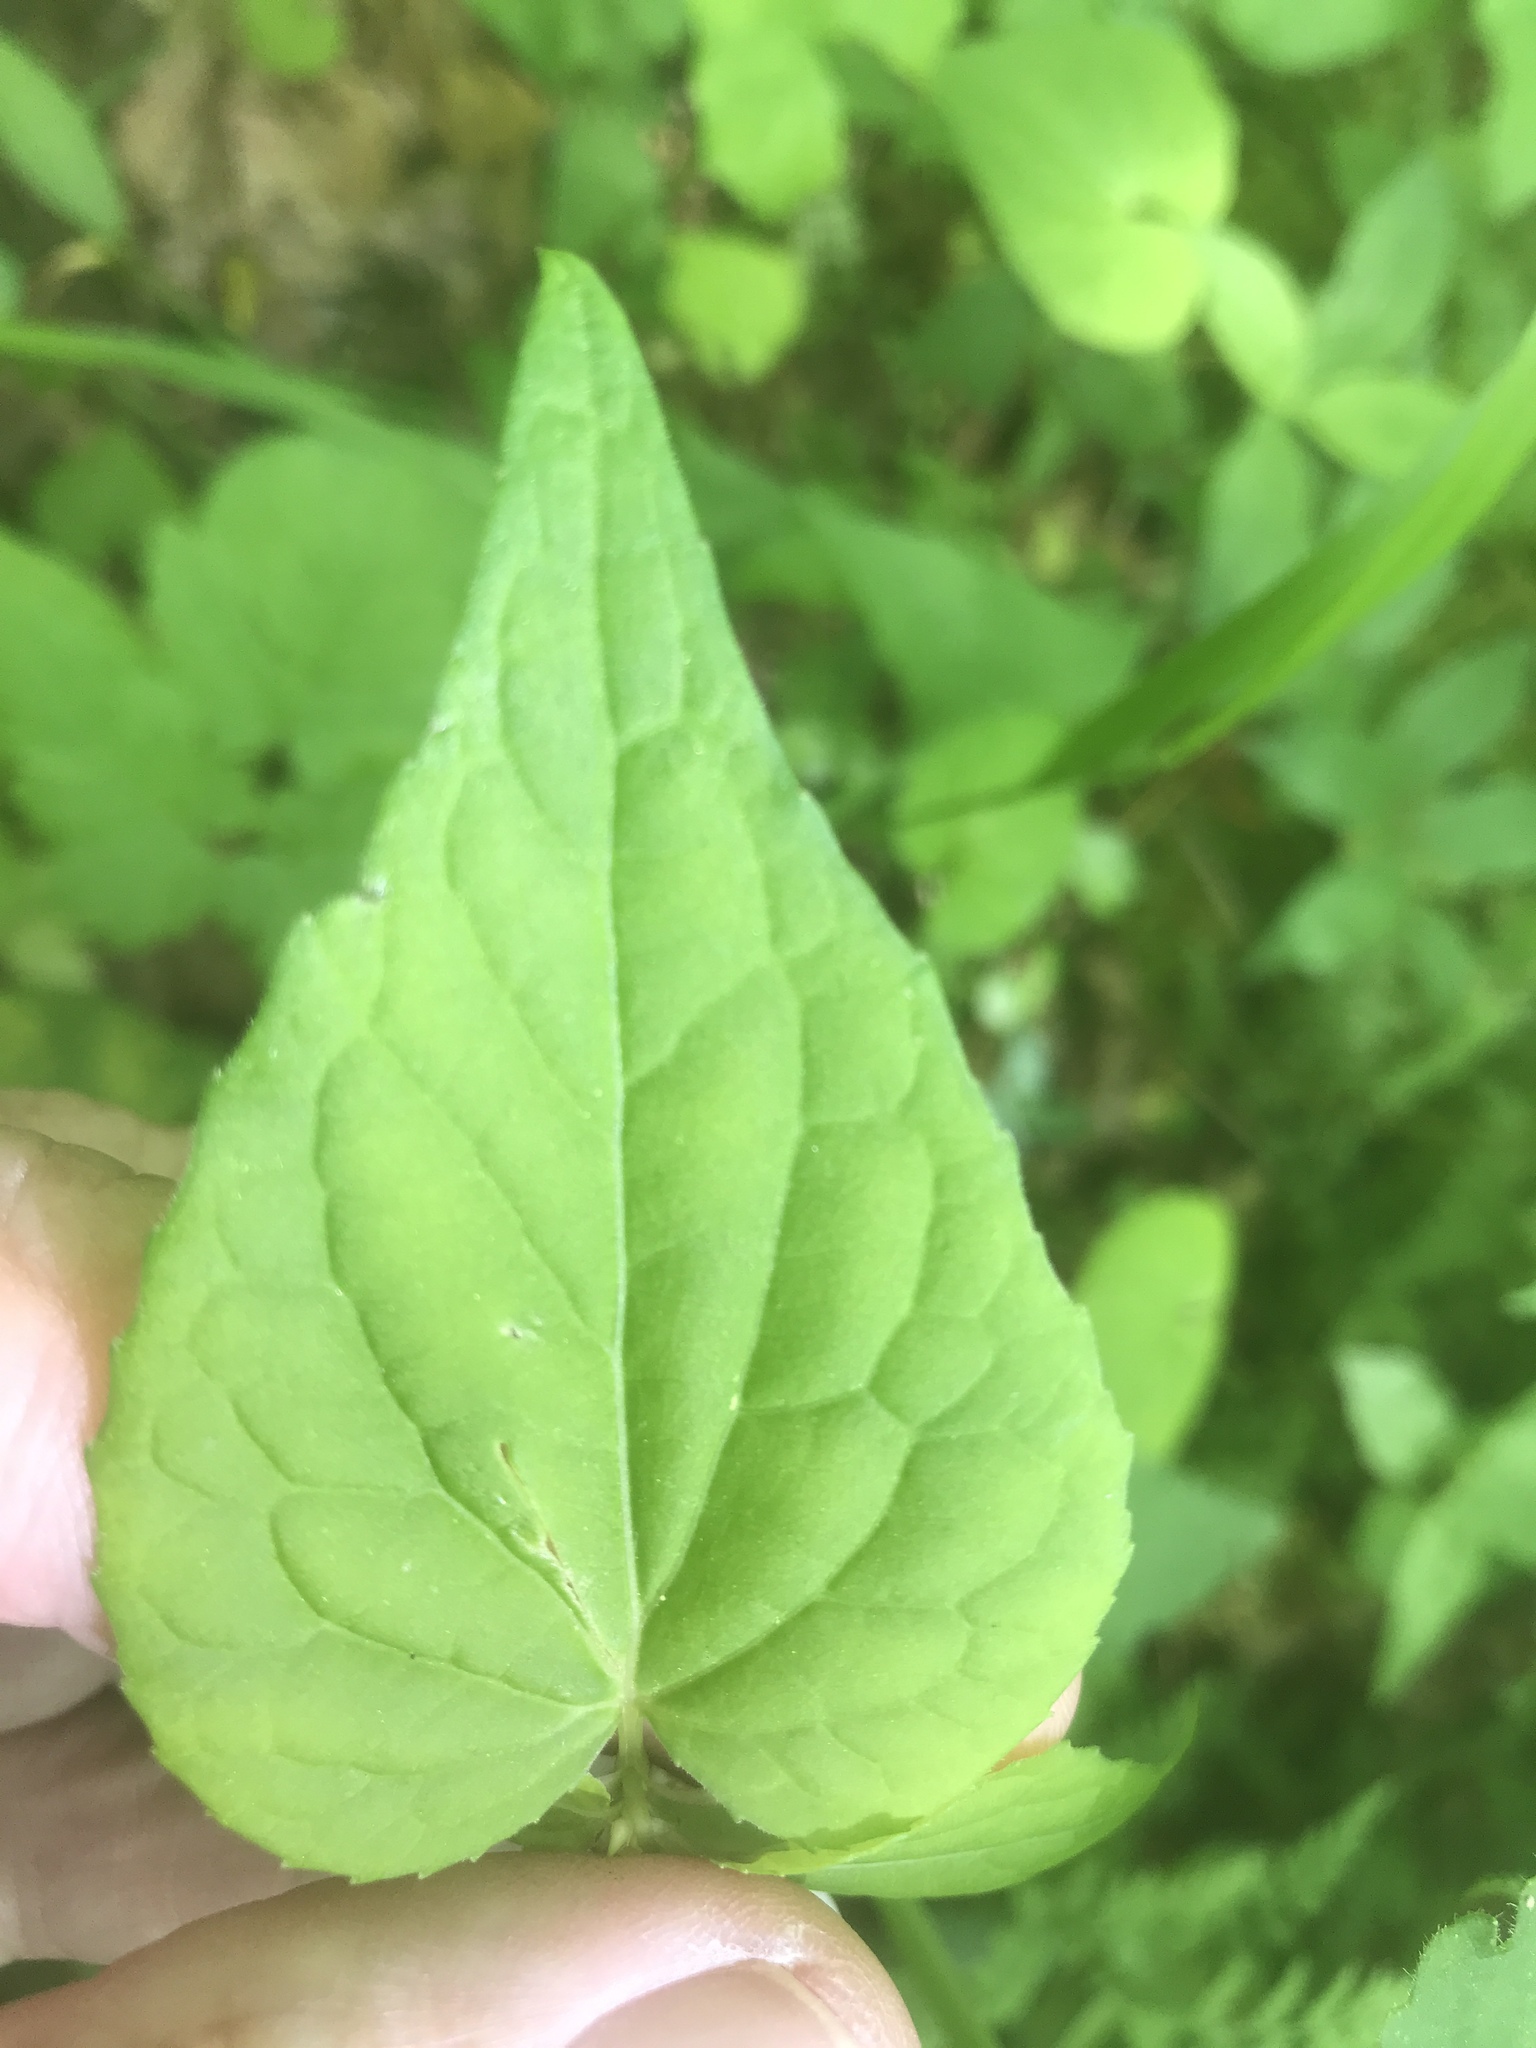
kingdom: Plantae
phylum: Tracheophyta
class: Magnoliopsida
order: Malpighiales
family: Violaceae
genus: Viola
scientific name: Viola canadensis
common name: Canada violet
